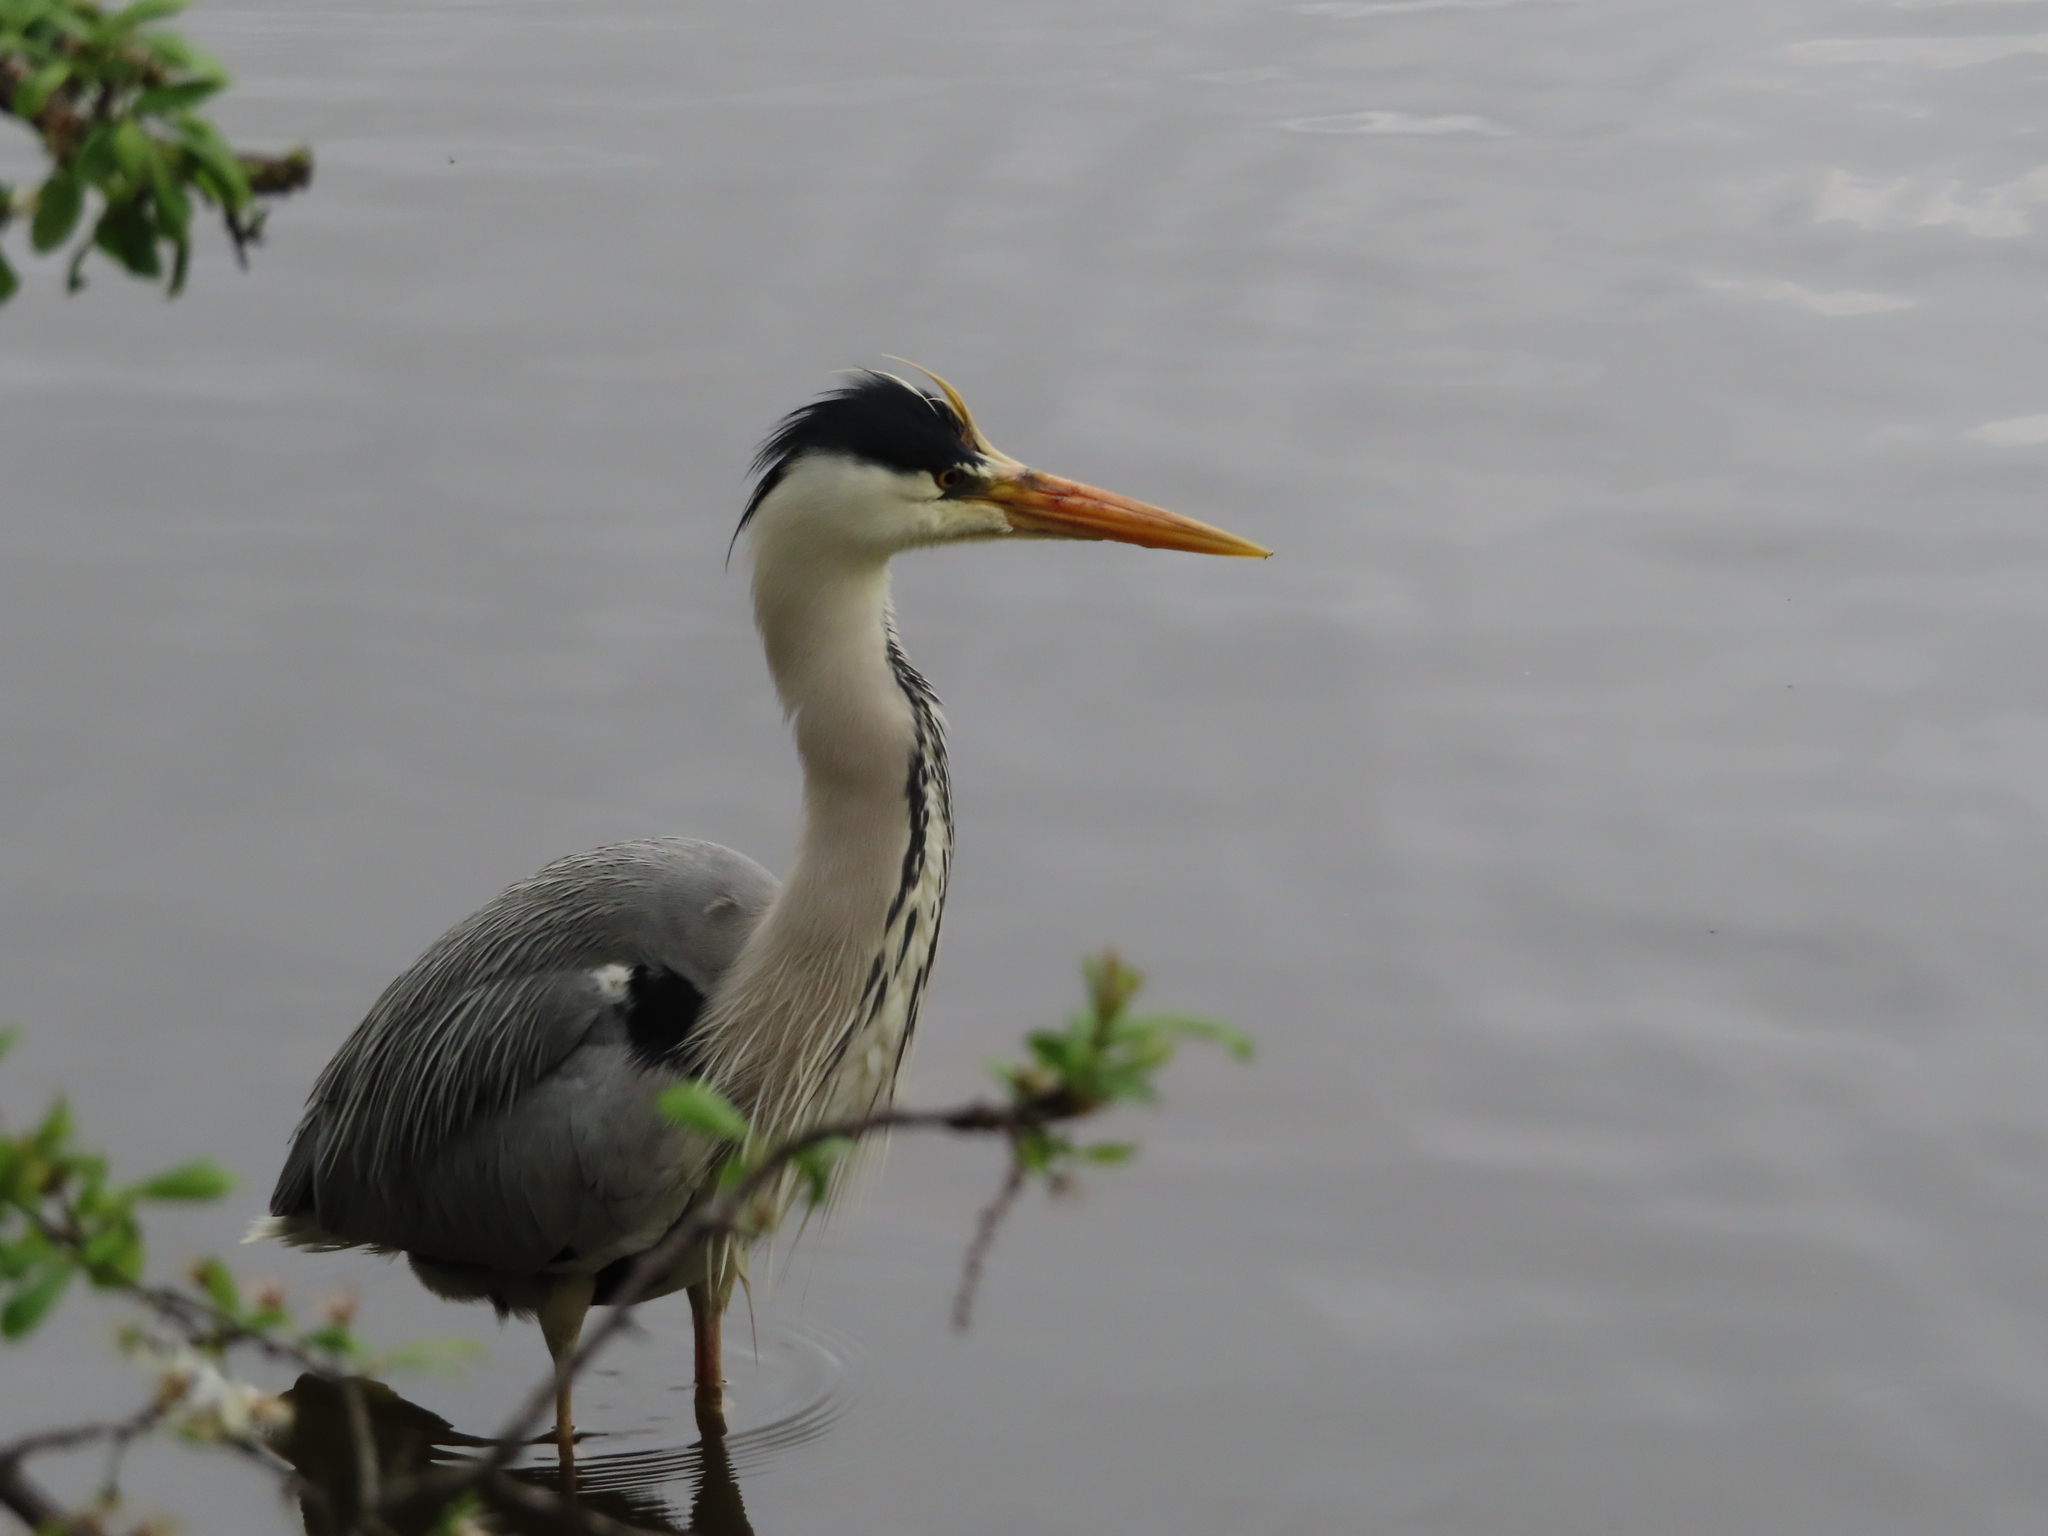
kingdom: Animalia
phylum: Chordata
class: Aves
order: Pelecaniformes
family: Ardeidae
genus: Ardea
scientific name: Ardea cinerea
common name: Grey heron
